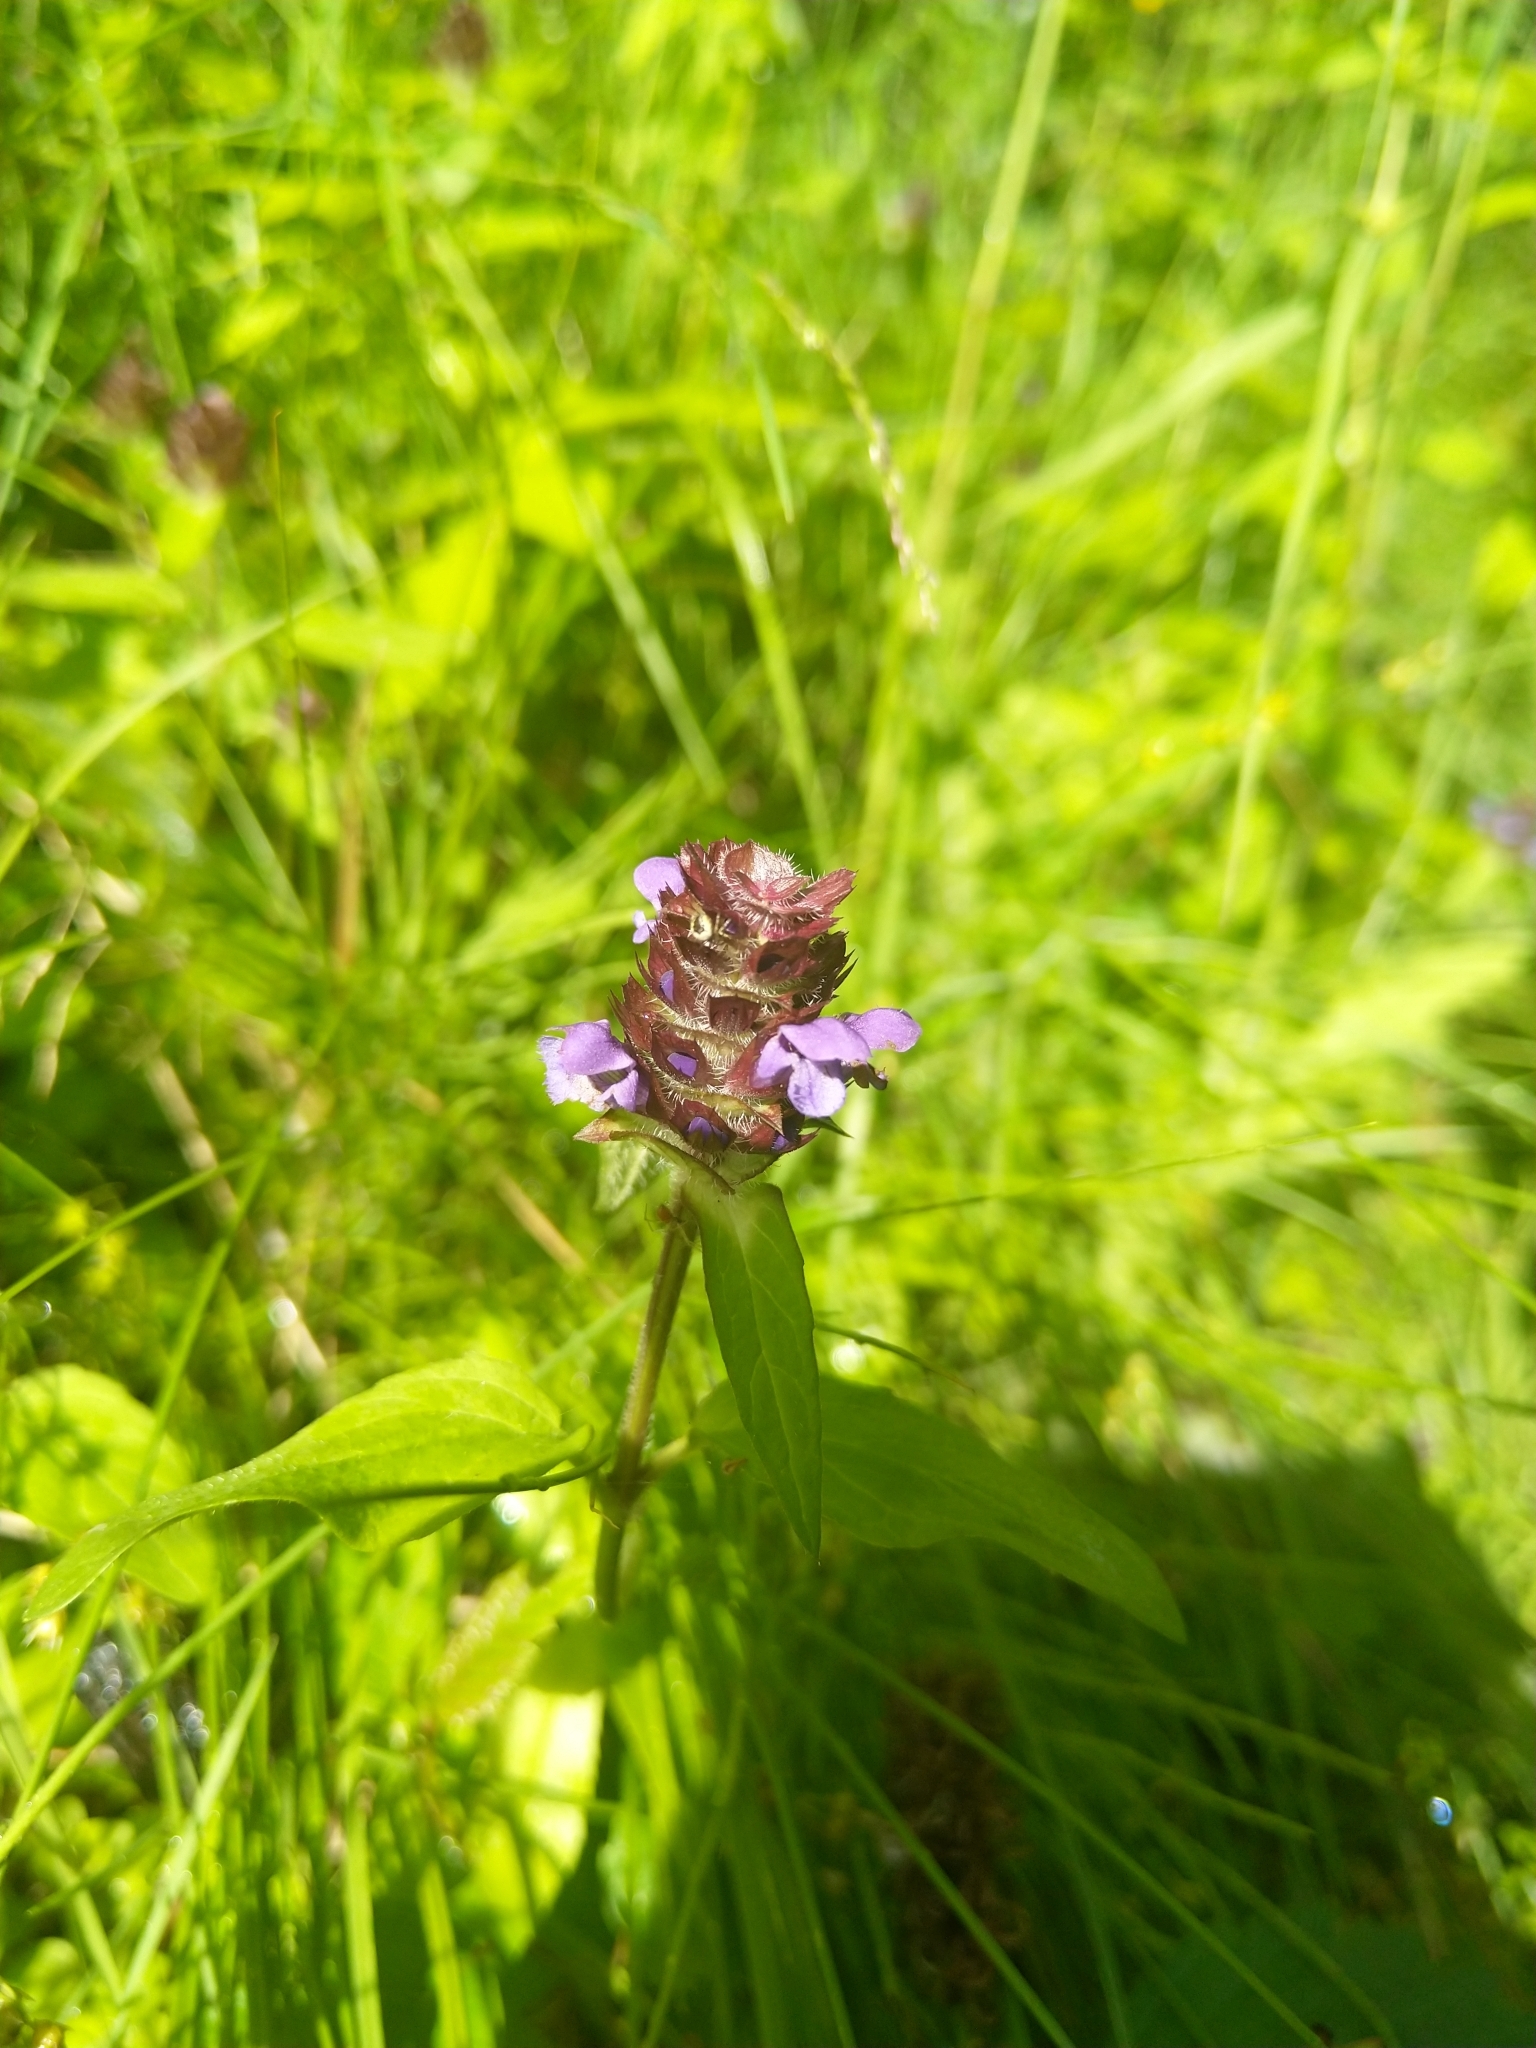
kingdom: Plantae
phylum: Tracheophyta
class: Magnoliopsida
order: Lamiales
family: Lamiaceae
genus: Prunella
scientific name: Prunella vulgaris
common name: Heal-all
